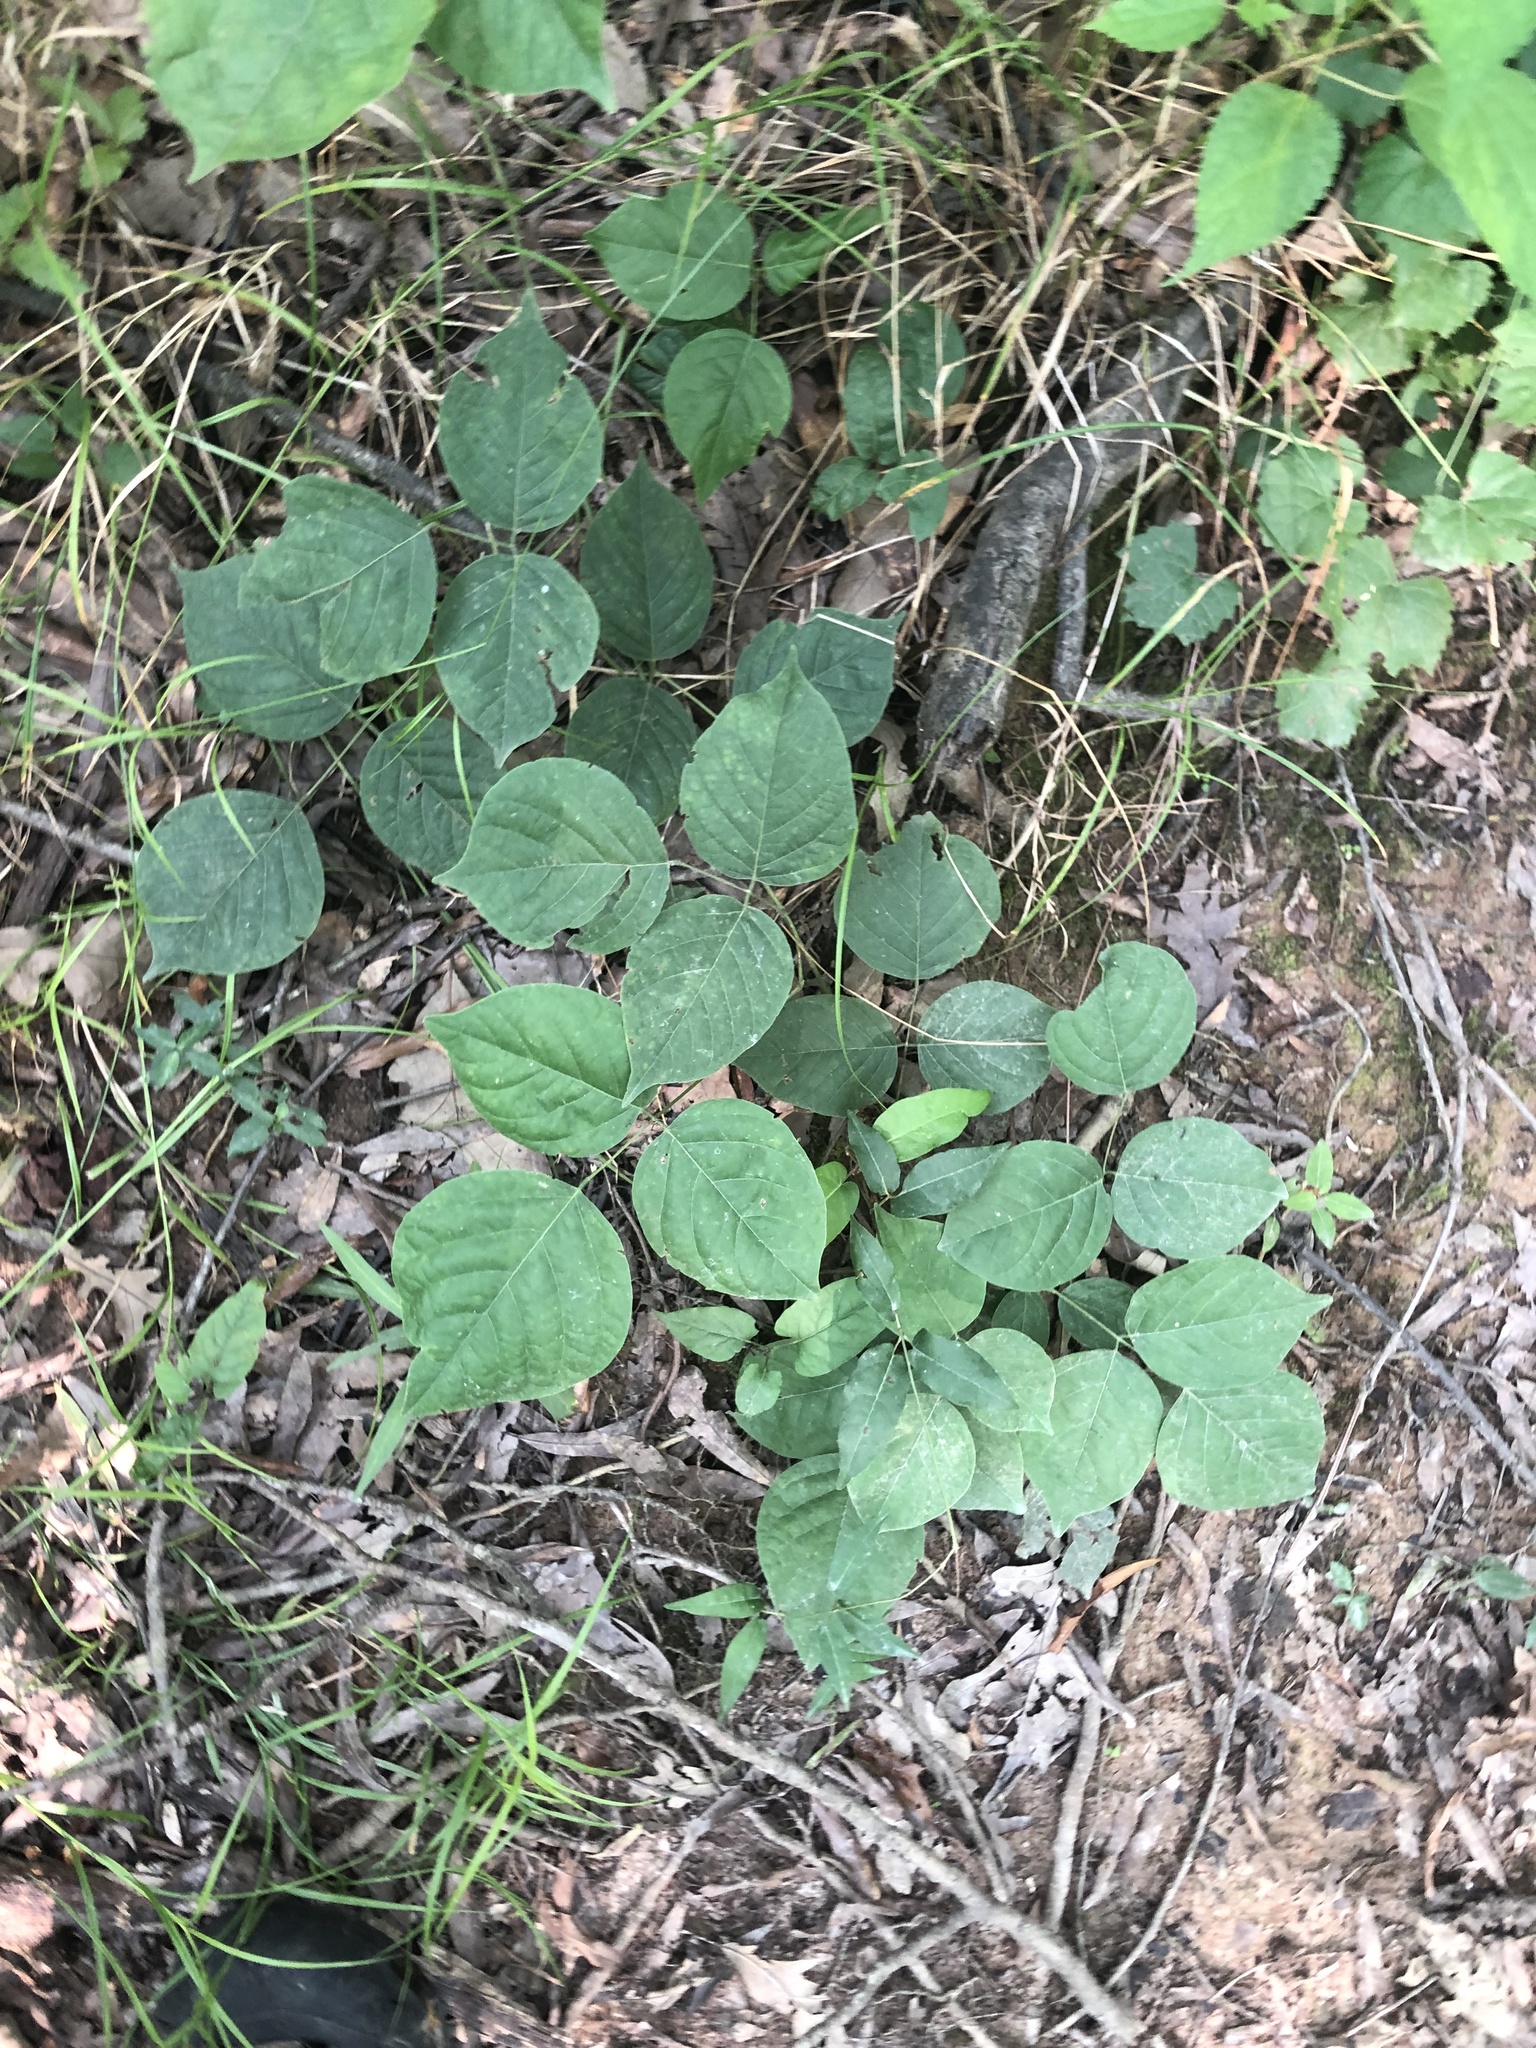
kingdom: Plantae
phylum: Tracheophyta
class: Magnoliopsida
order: Fabales
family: Fabaceae
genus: Lackeya
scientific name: Lackeya multiflora
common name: Boykin's clusterpea
